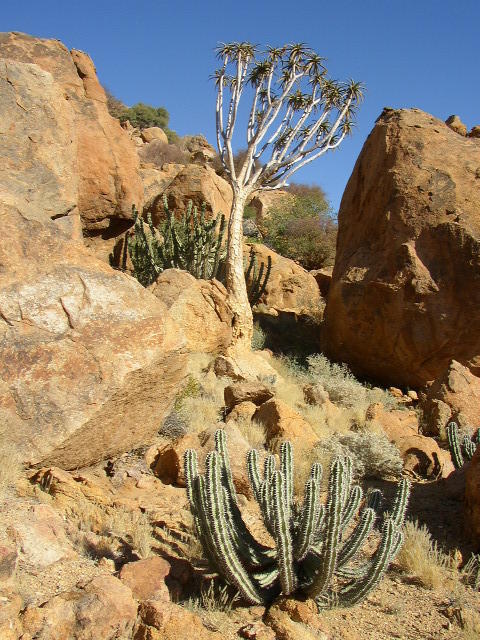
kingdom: Plantae
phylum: Tracheophyta
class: Liliopsida
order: Asparagales
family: Asphodelaceae
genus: Aloidendron
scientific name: Aloidendron dichotomum
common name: Quiver tree
